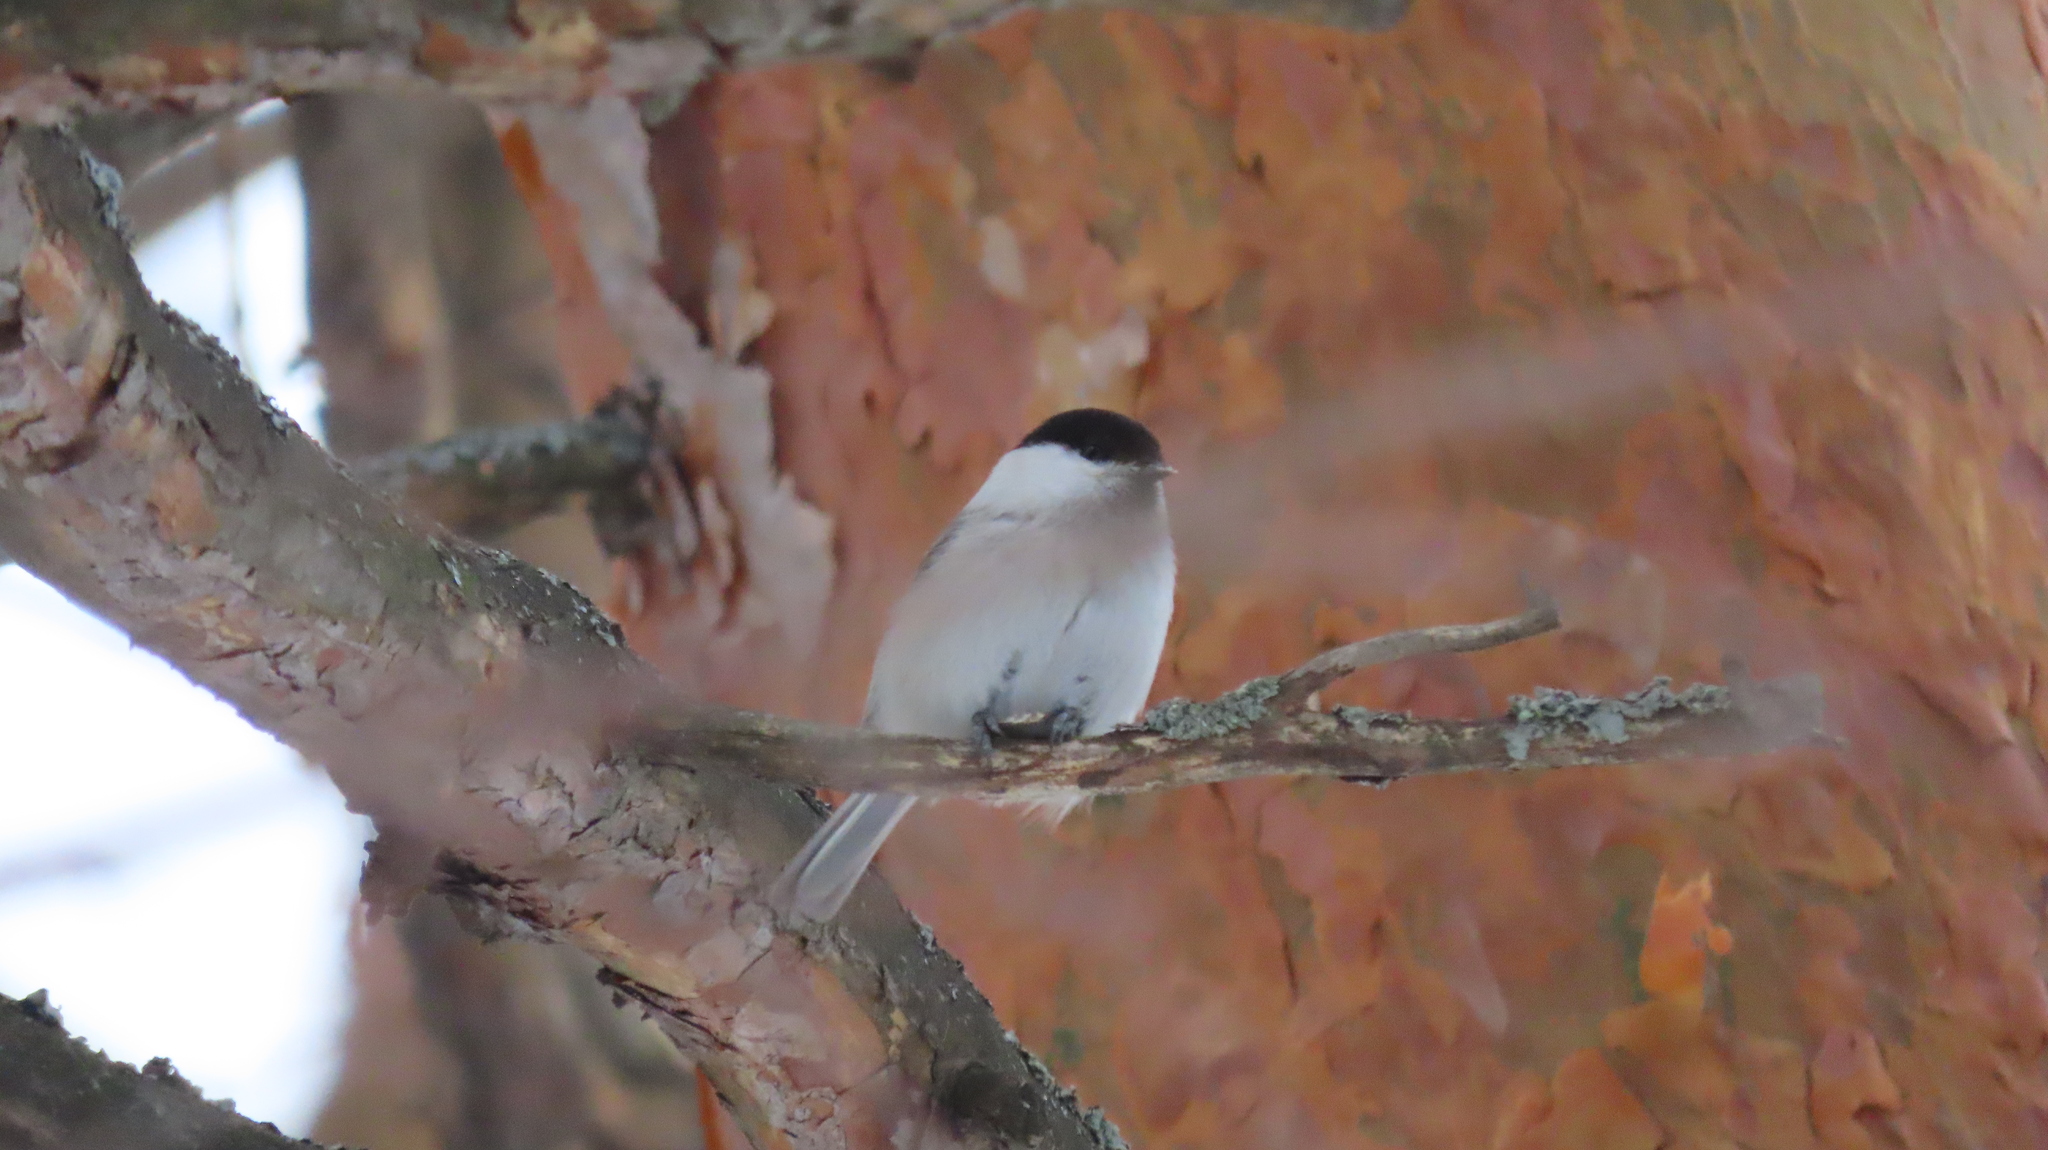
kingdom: Animalia
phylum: Chordata
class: Aves
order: Passeriformes
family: Paridae
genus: Poecile
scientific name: Poecile montanus
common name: Willow tit
